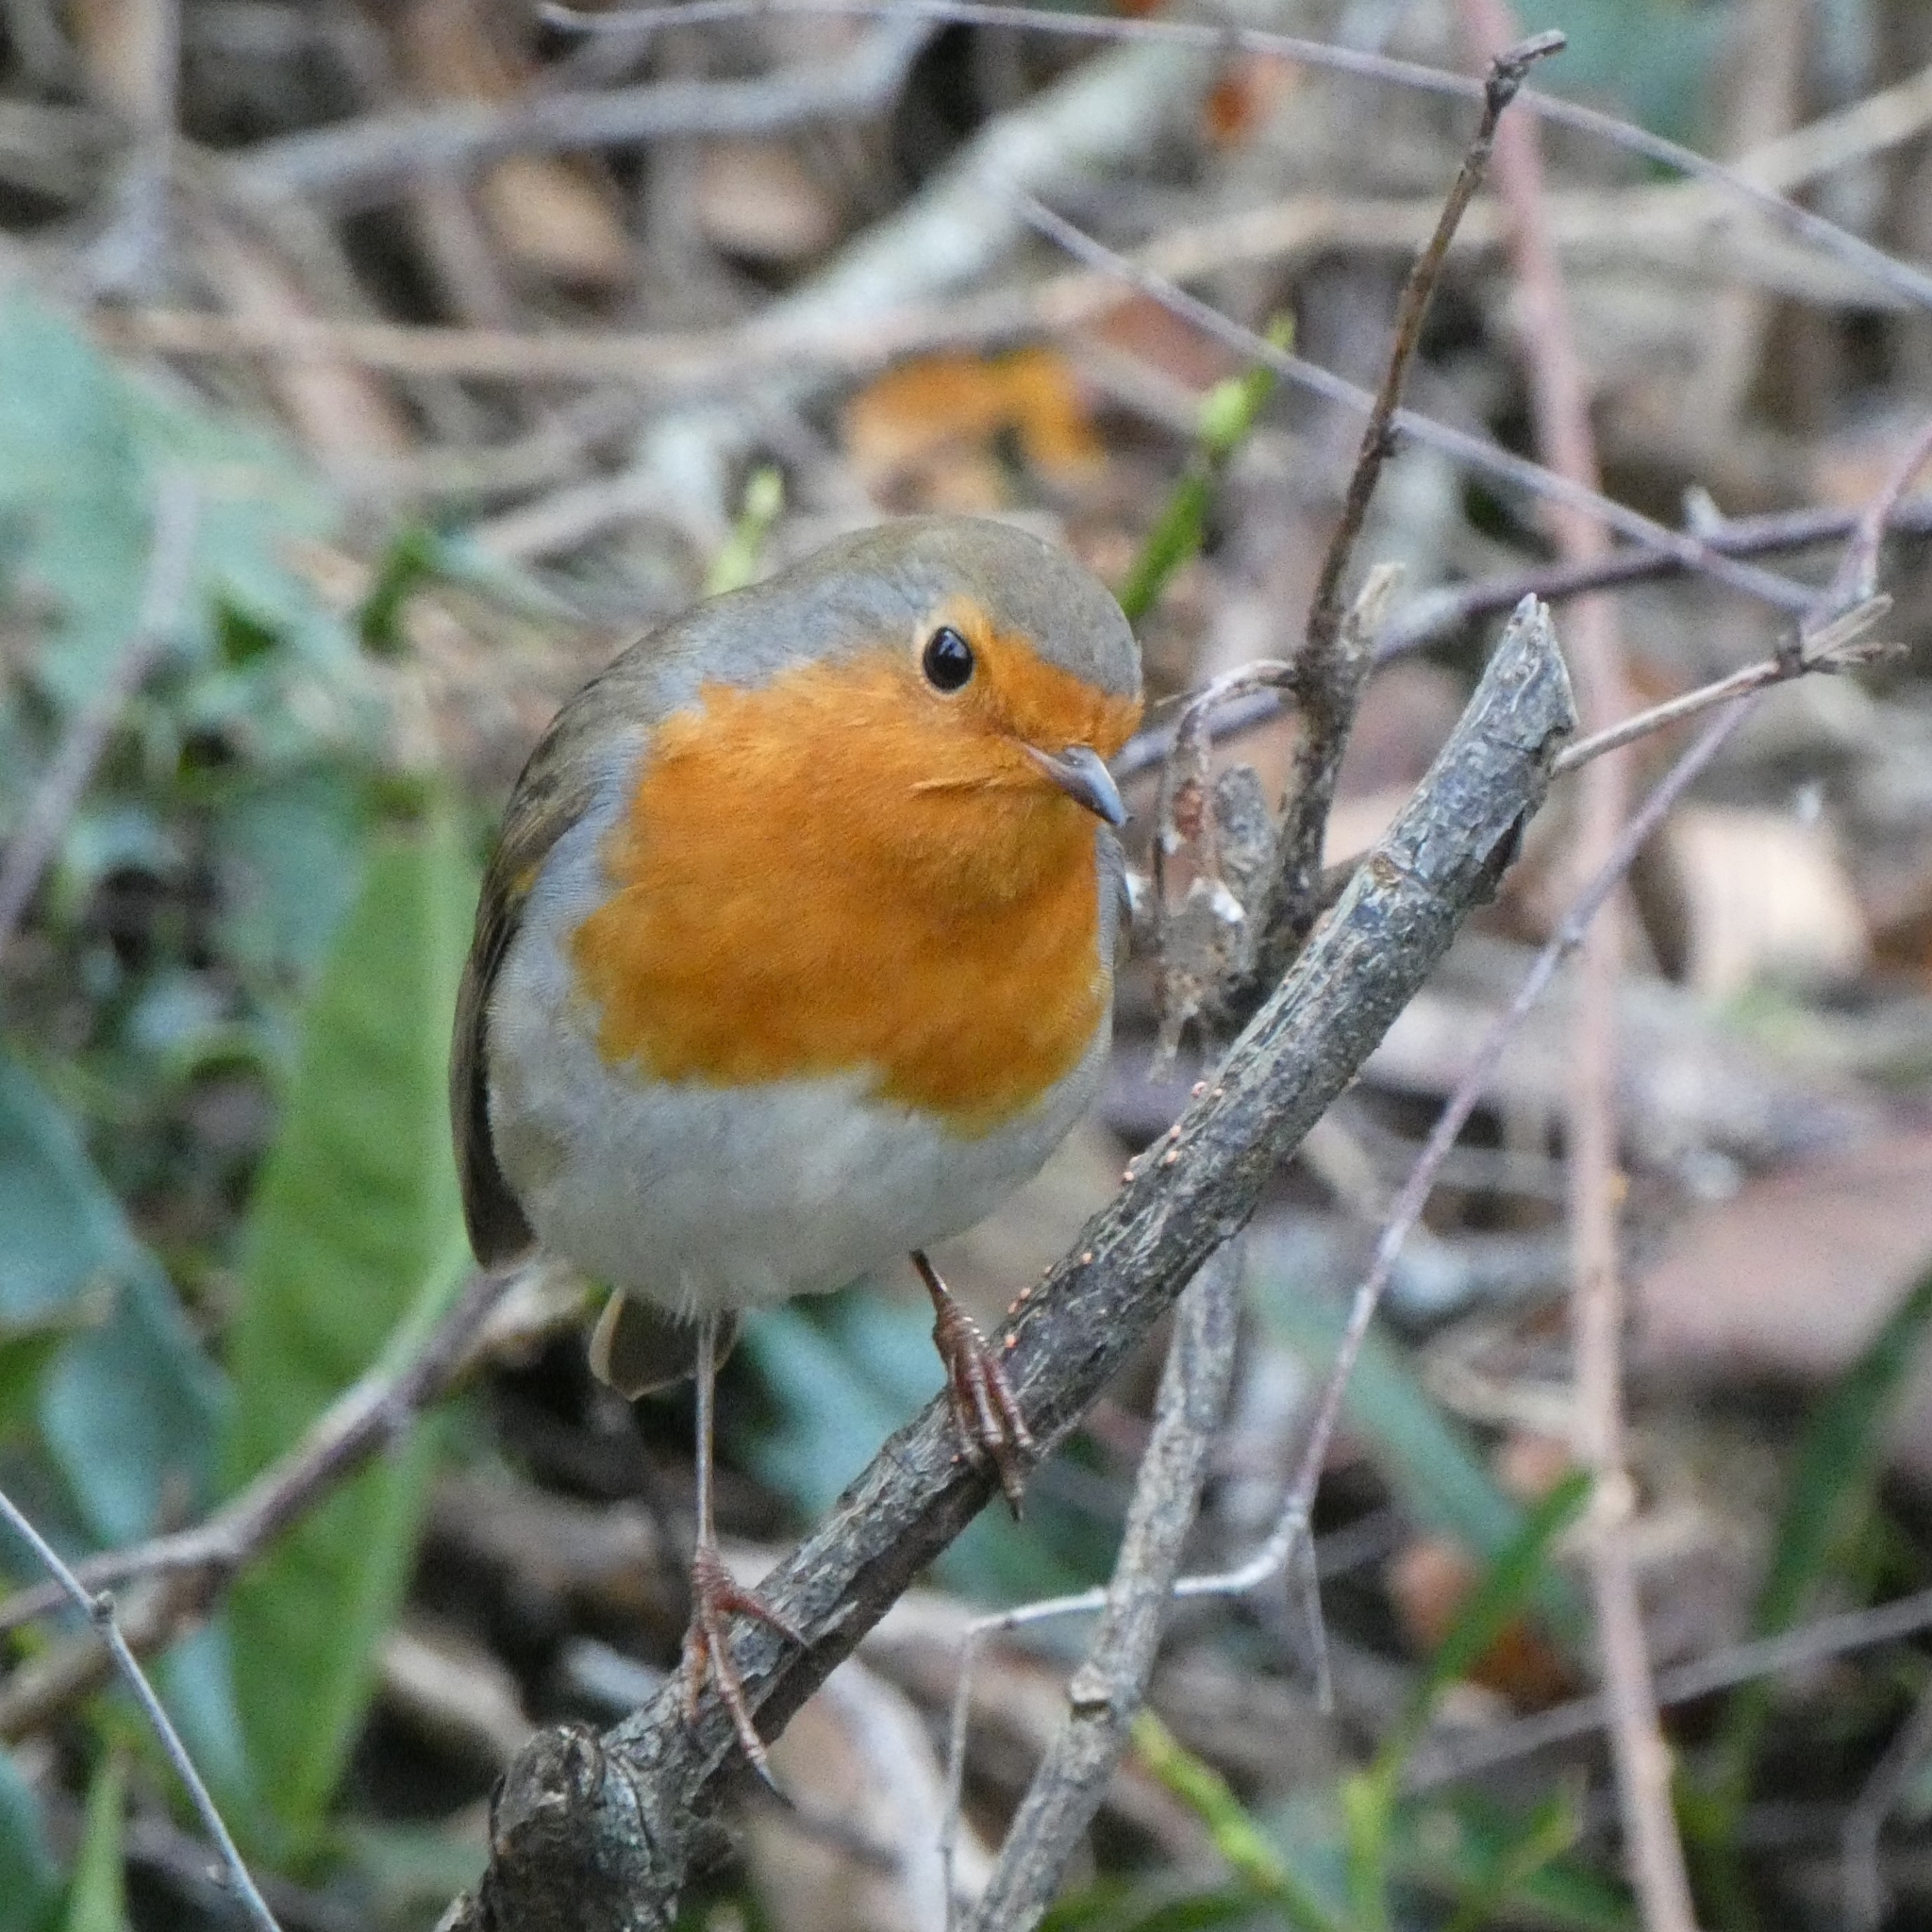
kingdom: Animalia
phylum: Chordata
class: Aves
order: Passeriformes
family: Muscicapidae
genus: Erithacus
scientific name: Erithacus rubecula
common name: European robin
